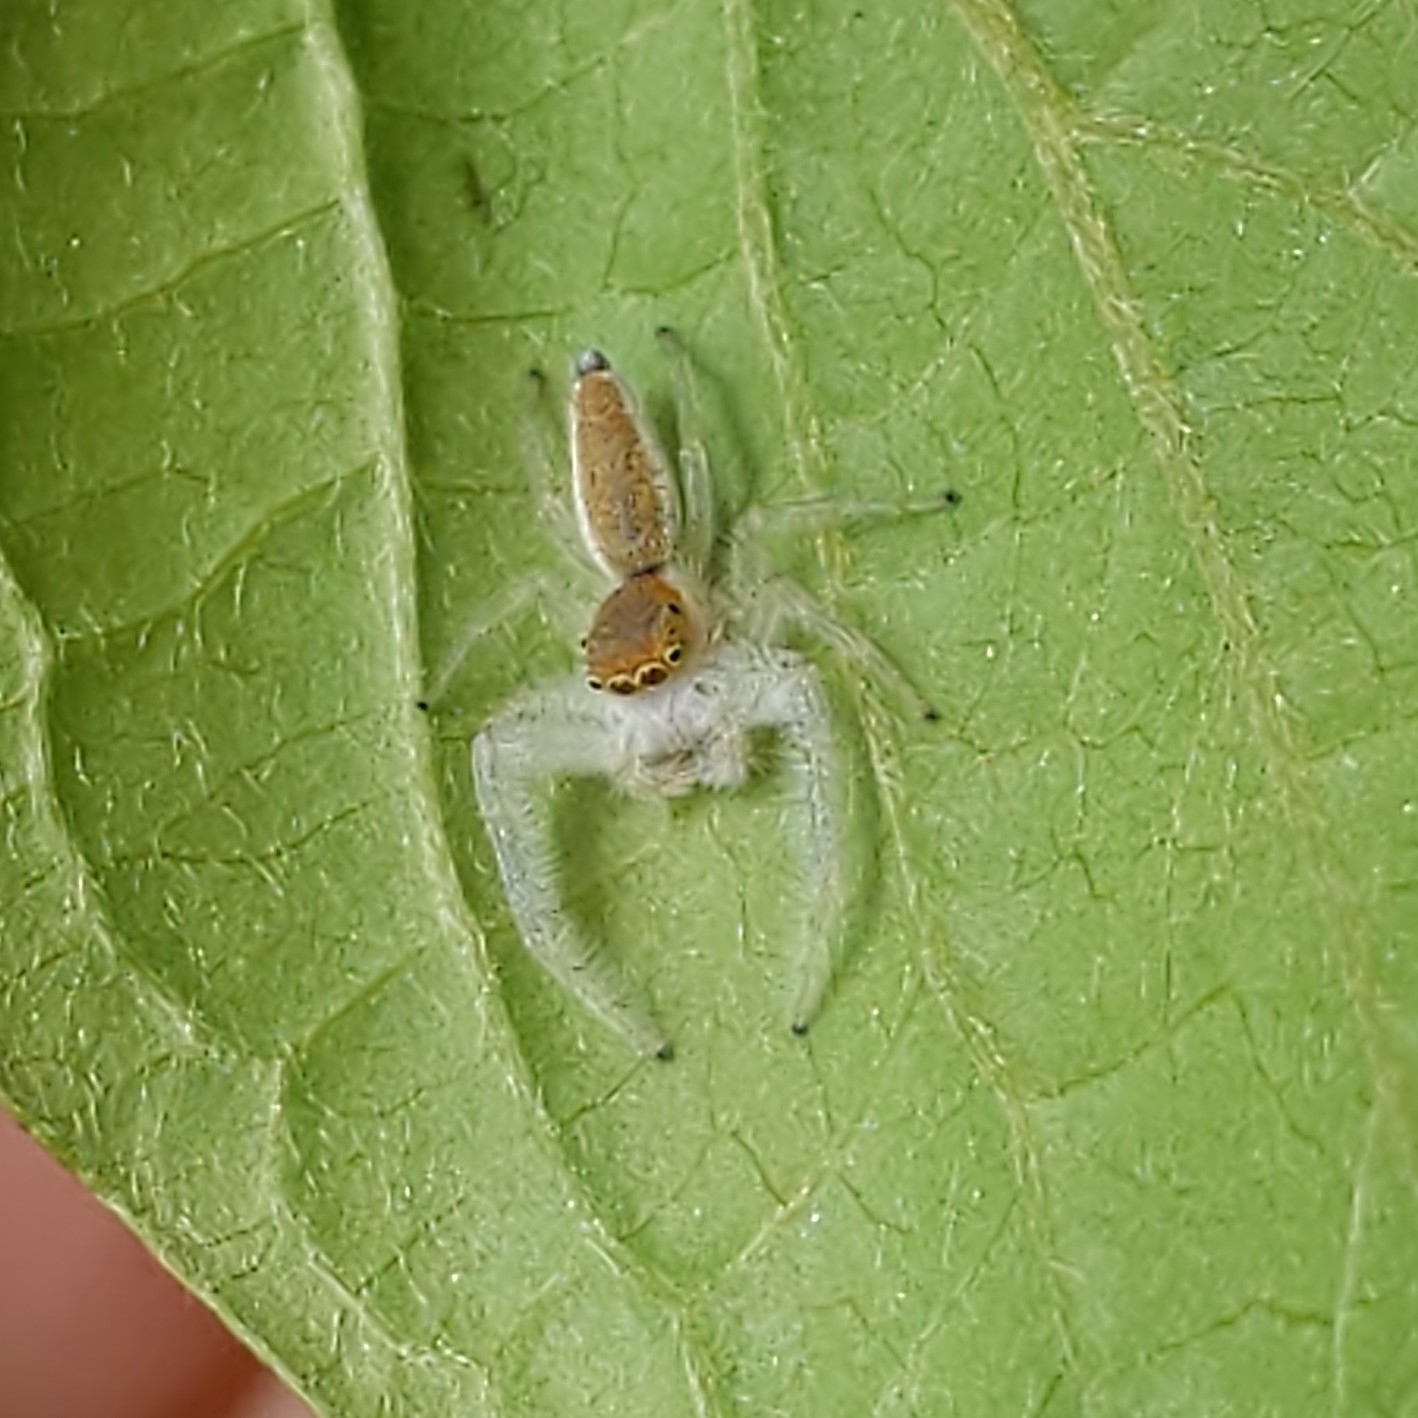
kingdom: Animalia
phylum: Arthropoda
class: Arachnida
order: Araneae
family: Salticidae
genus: Hentzia
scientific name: Hentzia mitrata
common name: White-jawed jumping spider
